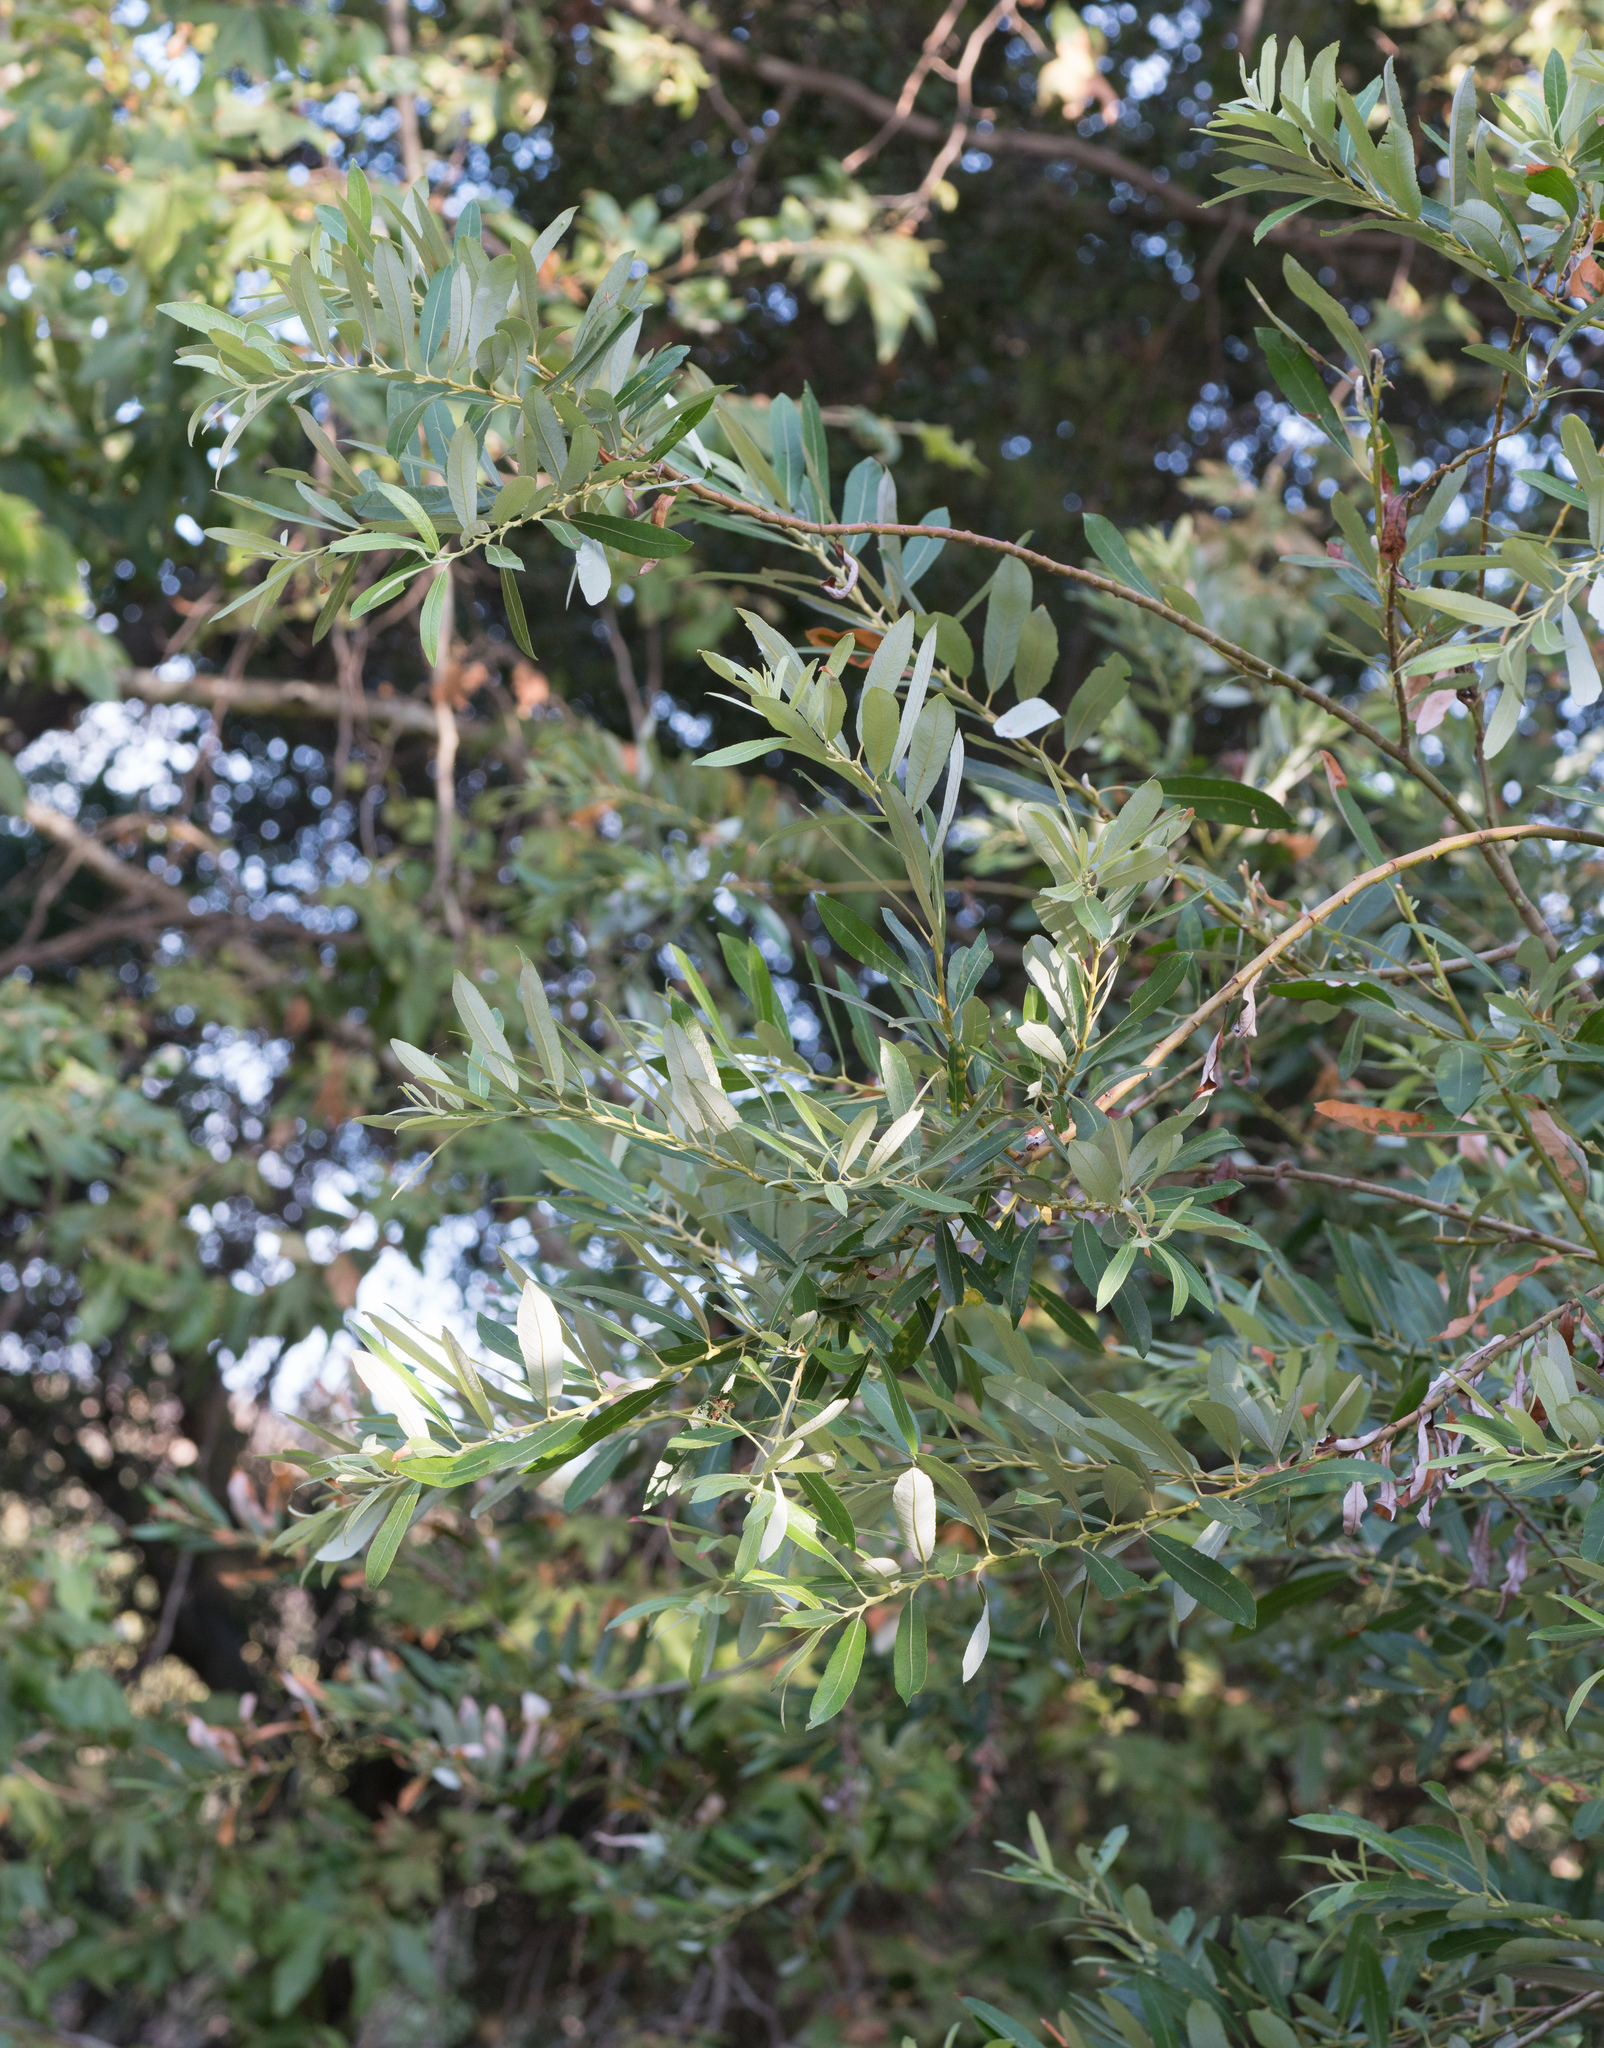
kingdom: Plantae
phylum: Tracheophyta
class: Magnoliopsida
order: Malpighiales
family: Salicaceae
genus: Salix
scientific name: Salix lasiolepis
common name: Arroyo willow
